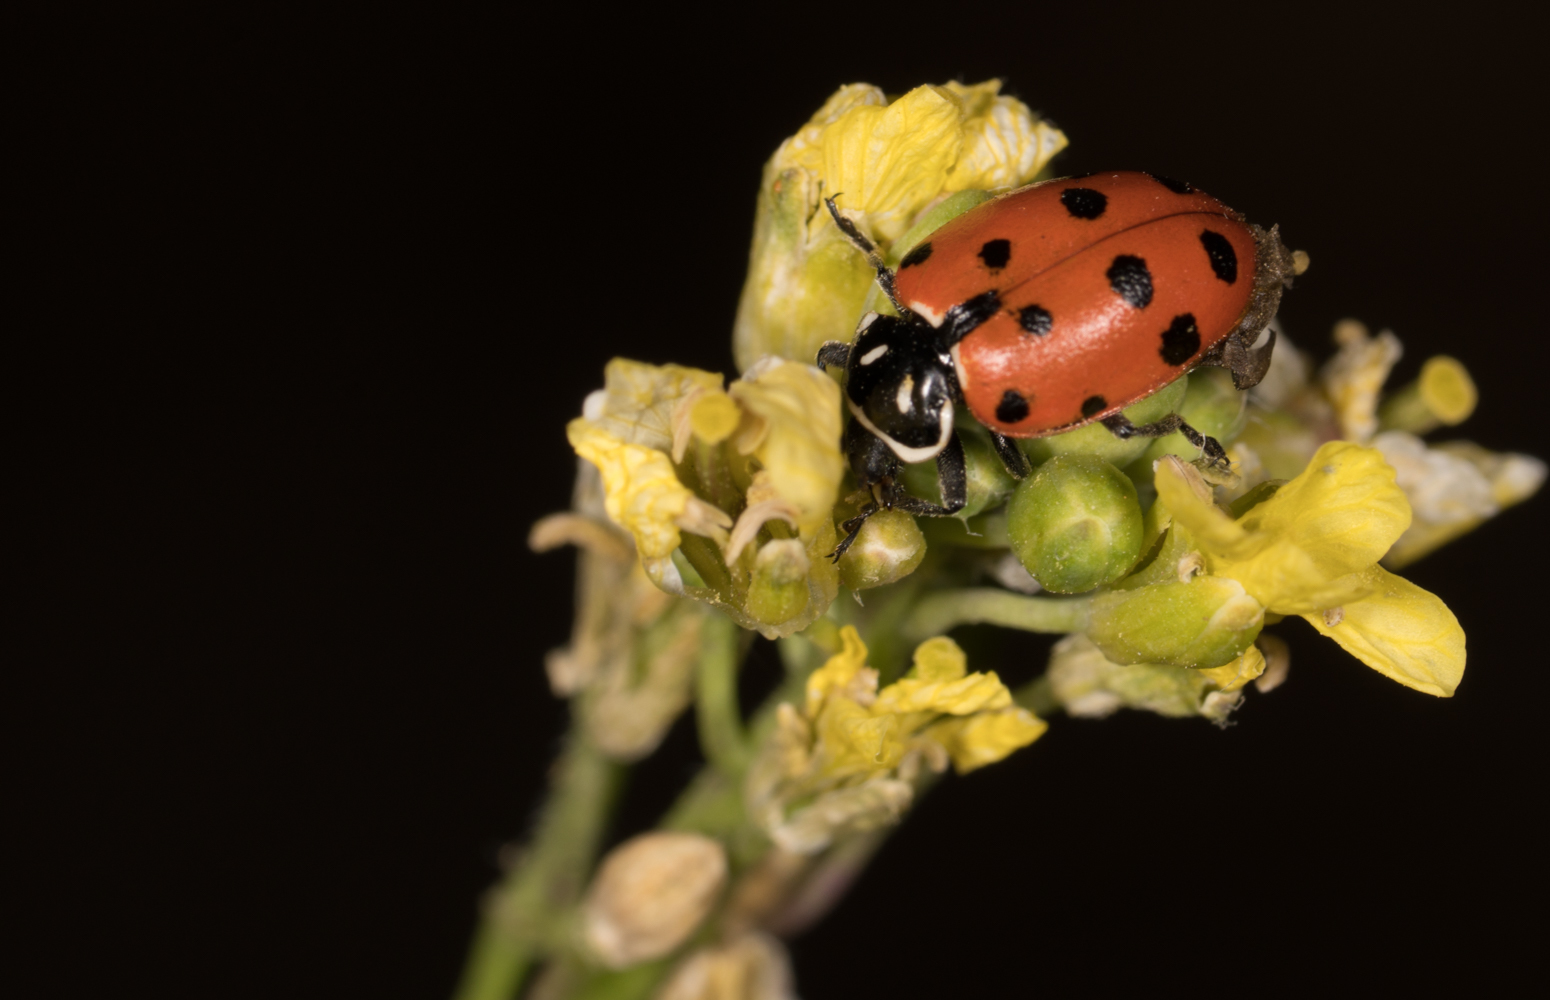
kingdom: Animalia
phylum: Arthropoda
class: Insecta
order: Coleoptera
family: Coccinellidae
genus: Hippodamia
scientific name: Hippodamia convergens
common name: Convergent lady beetle
